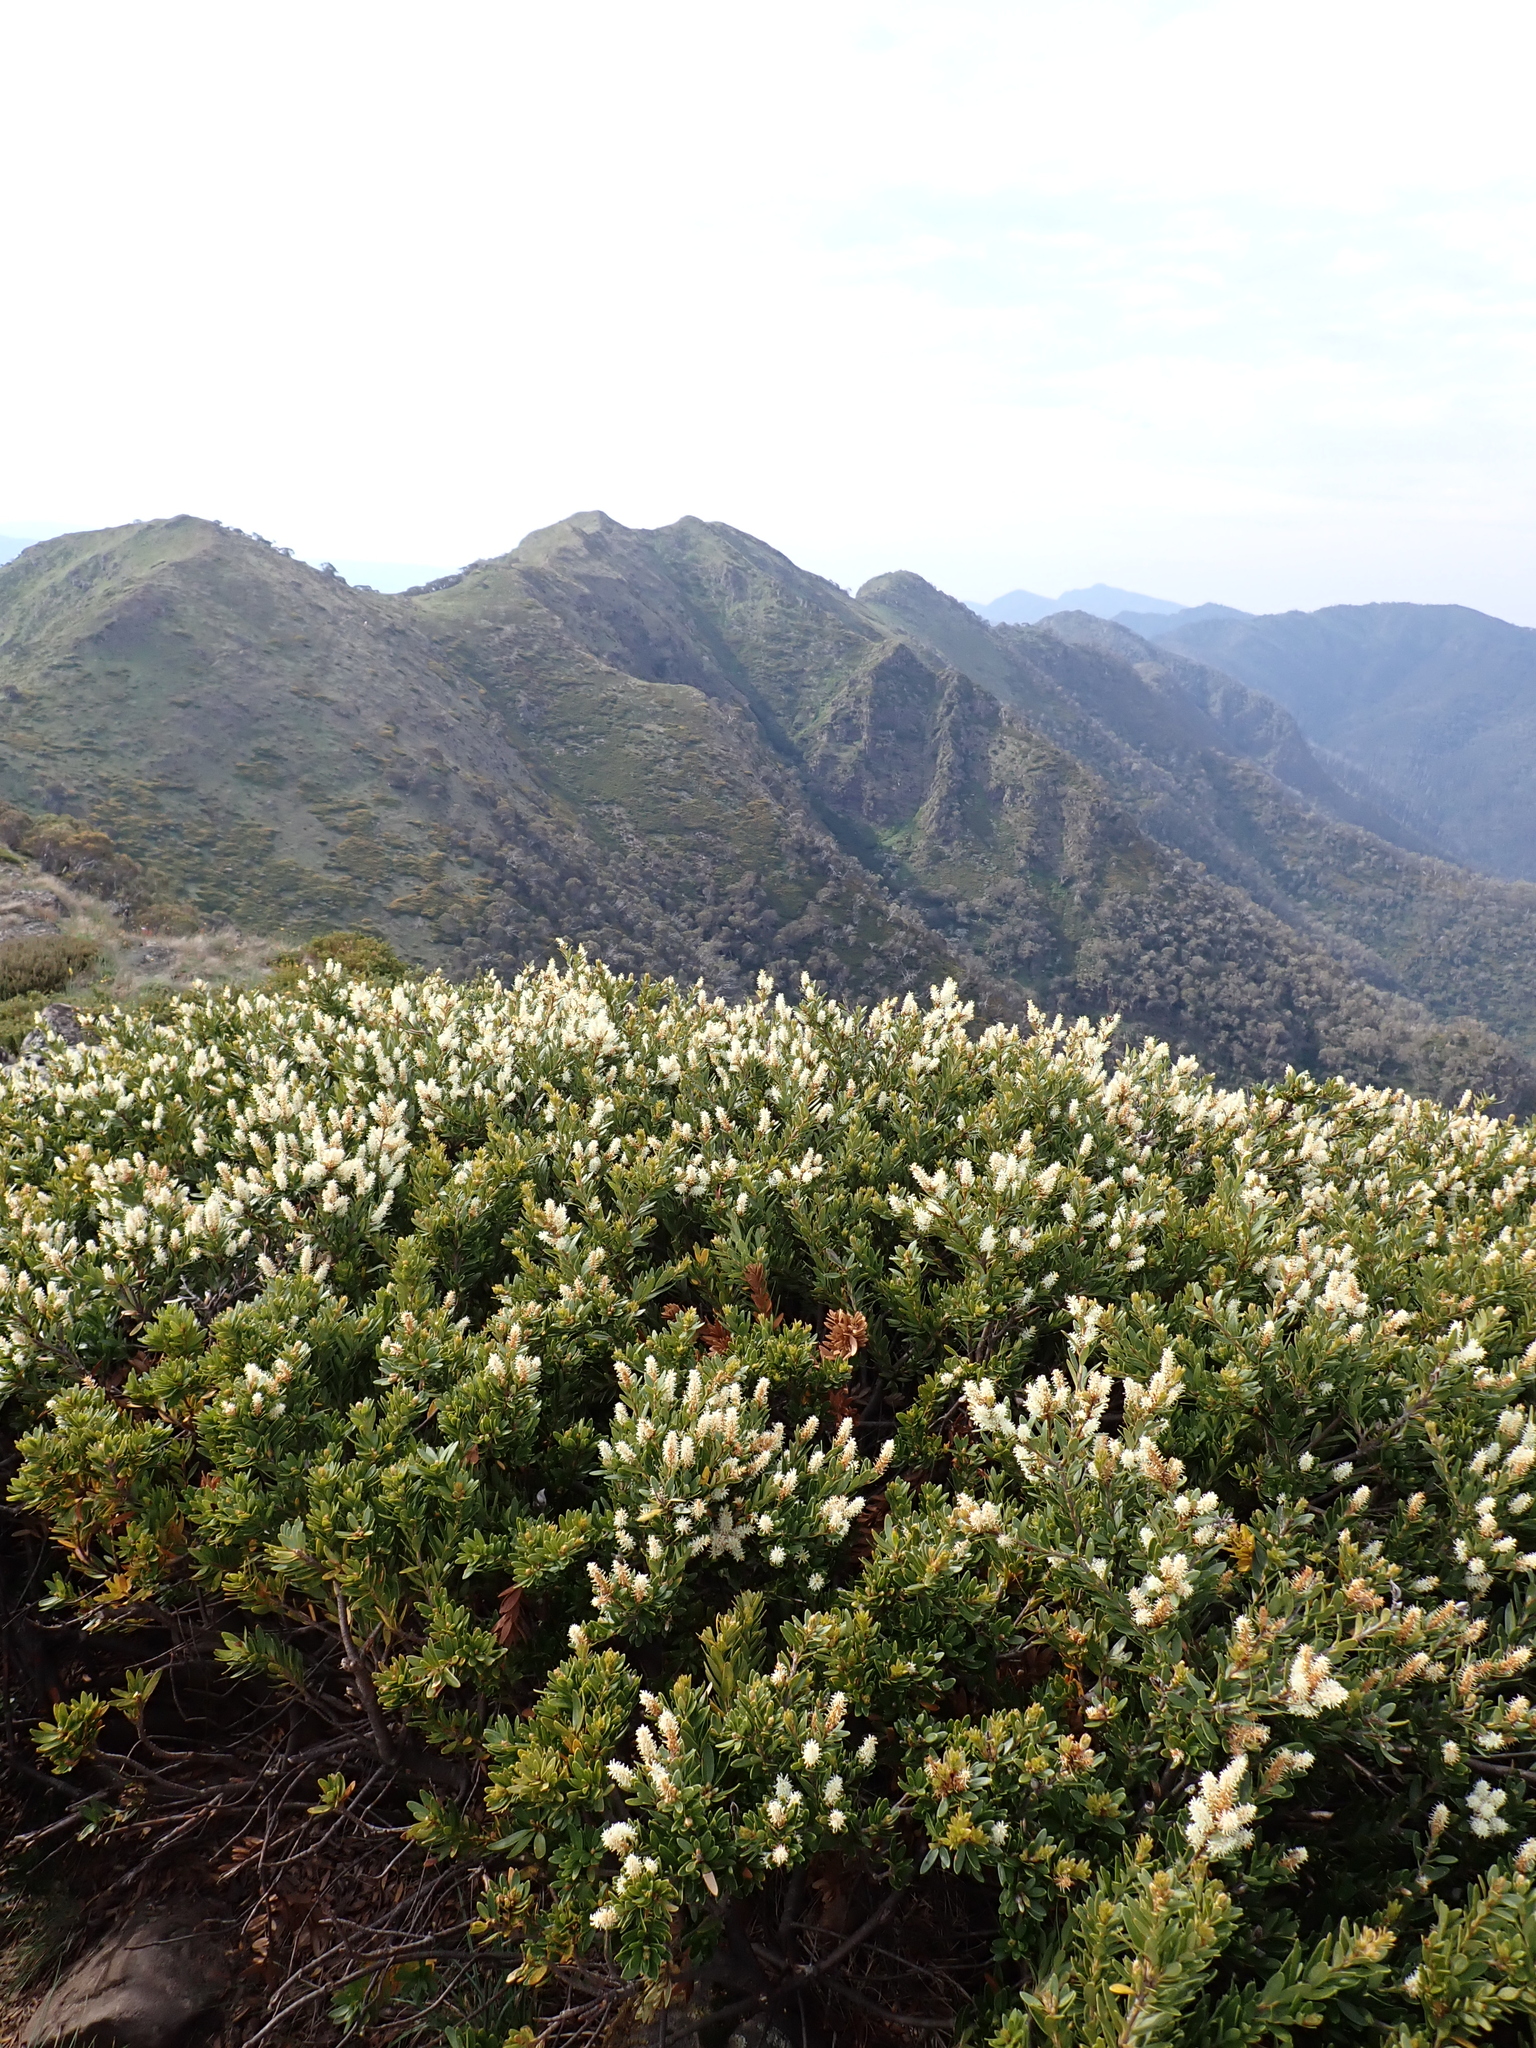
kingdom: Plantae
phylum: Tracheophyta
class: Magnoliopsida
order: Proteales
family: Proteaceae
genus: Orites
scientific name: Orites lancifolius
